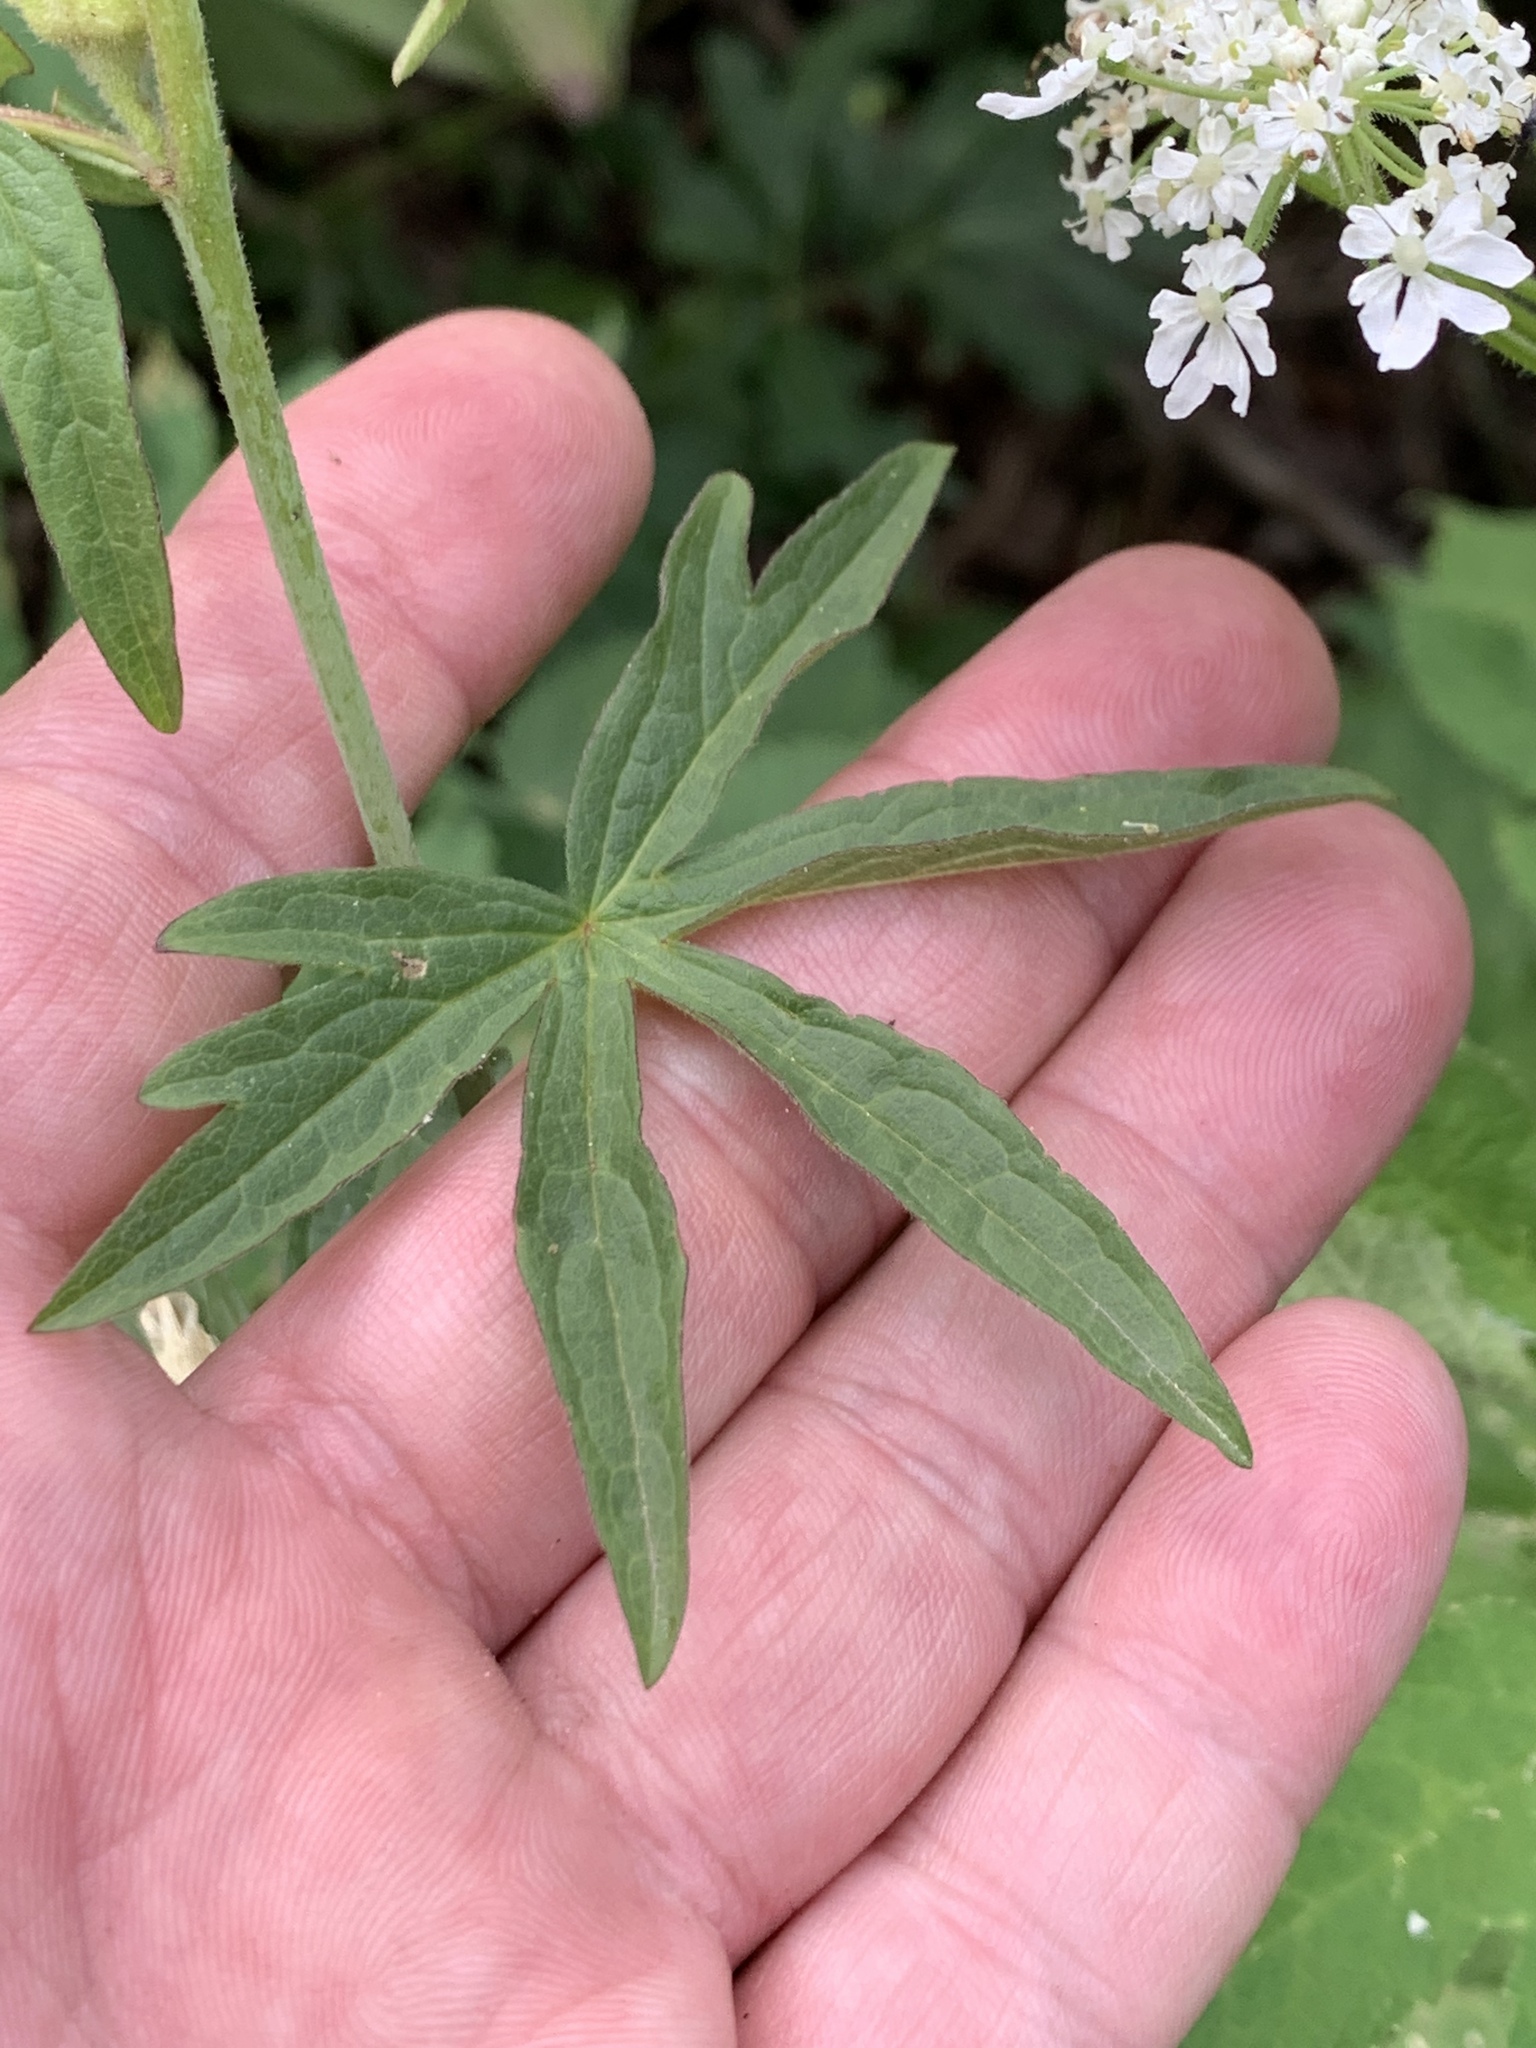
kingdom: Plantae
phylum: Tracheophyta
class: Magnoliopsida
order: Malvales
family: Malvaceae
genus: Sidalcea
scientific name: Sidalcea candida
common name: Prairie-mallow
